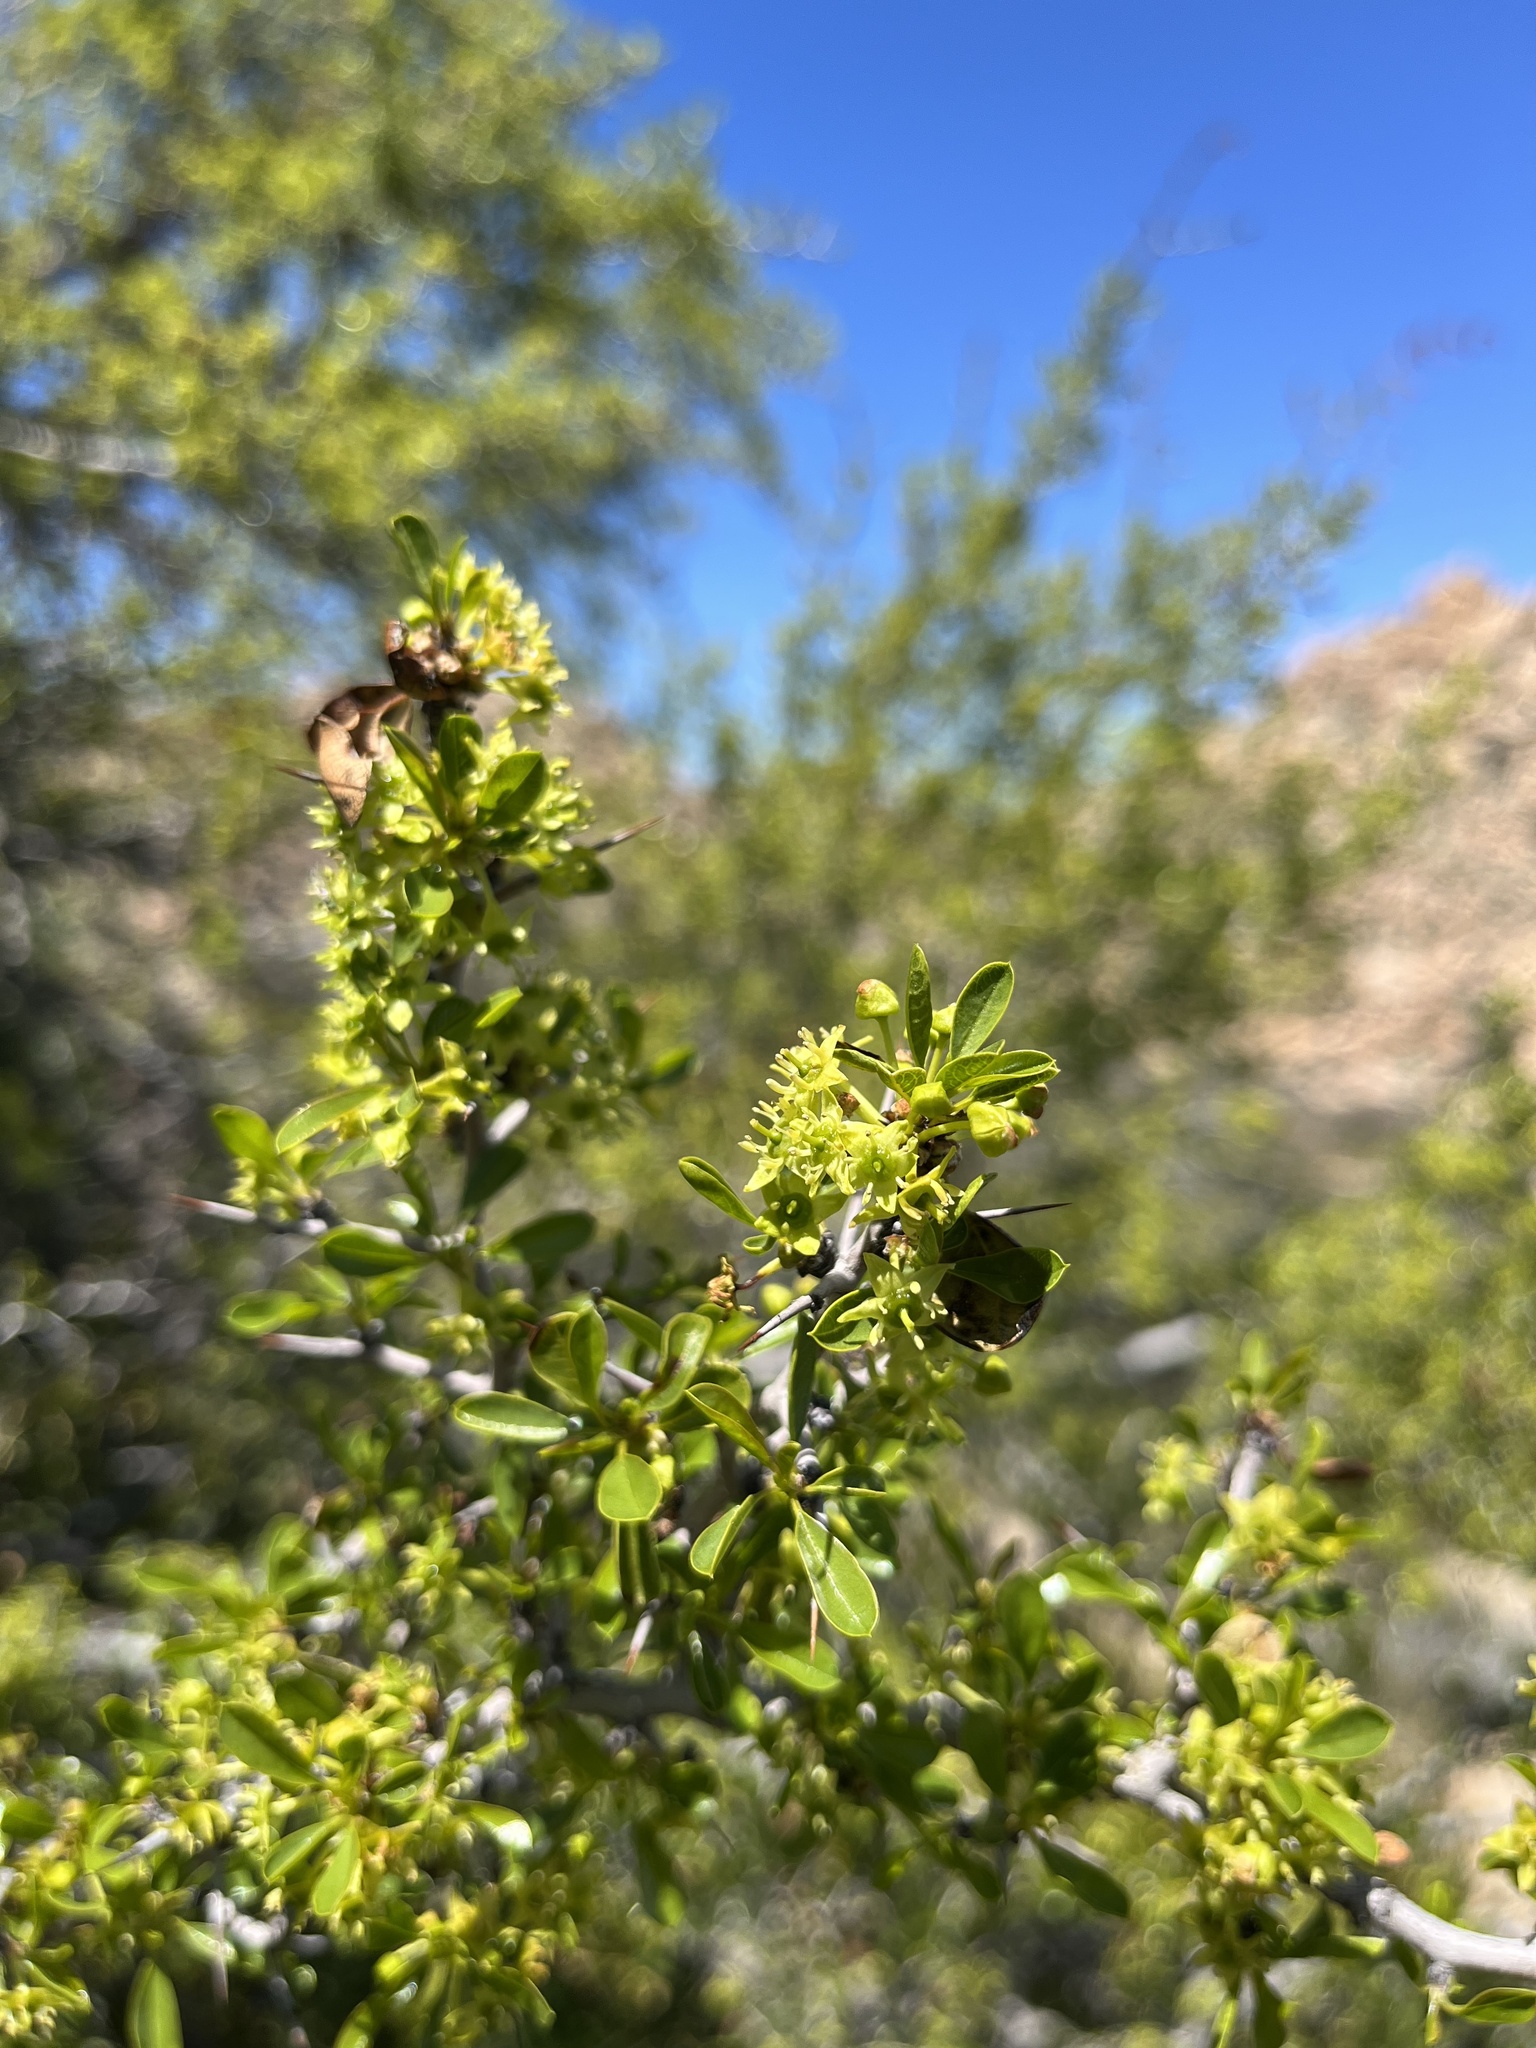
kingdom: Plantae
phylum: Tracheophyta
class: Magnoliopsida
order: Rosales
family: Rhamnaceae
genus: Pseudoziziphus
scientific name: Pseudoziziphus parryi
